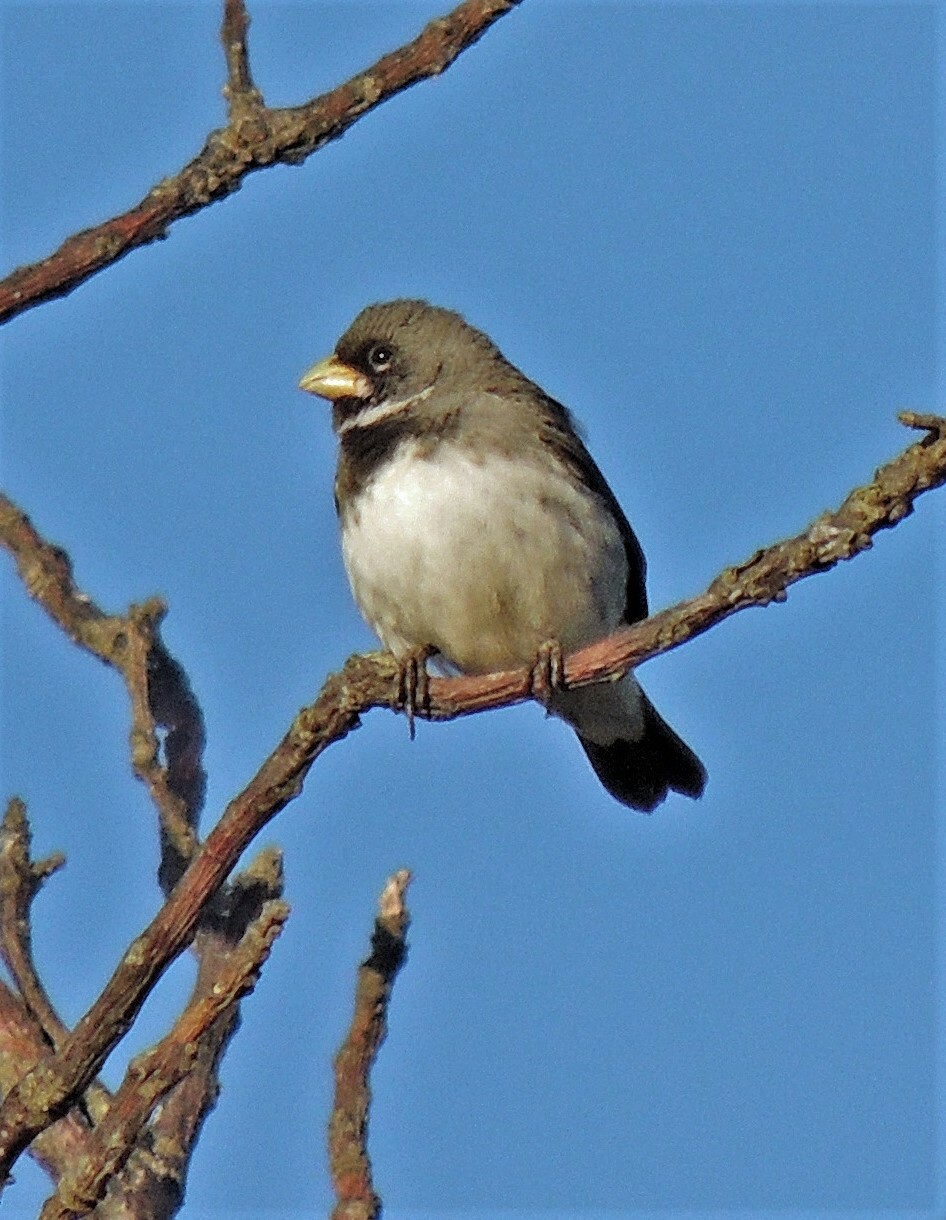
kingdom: Animalia
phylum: Chordata
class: Aves
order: Passeriformes
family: Thraupidae
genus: Sporophila
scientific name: Sporophila caerulescens
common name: Double-collared seedeater
